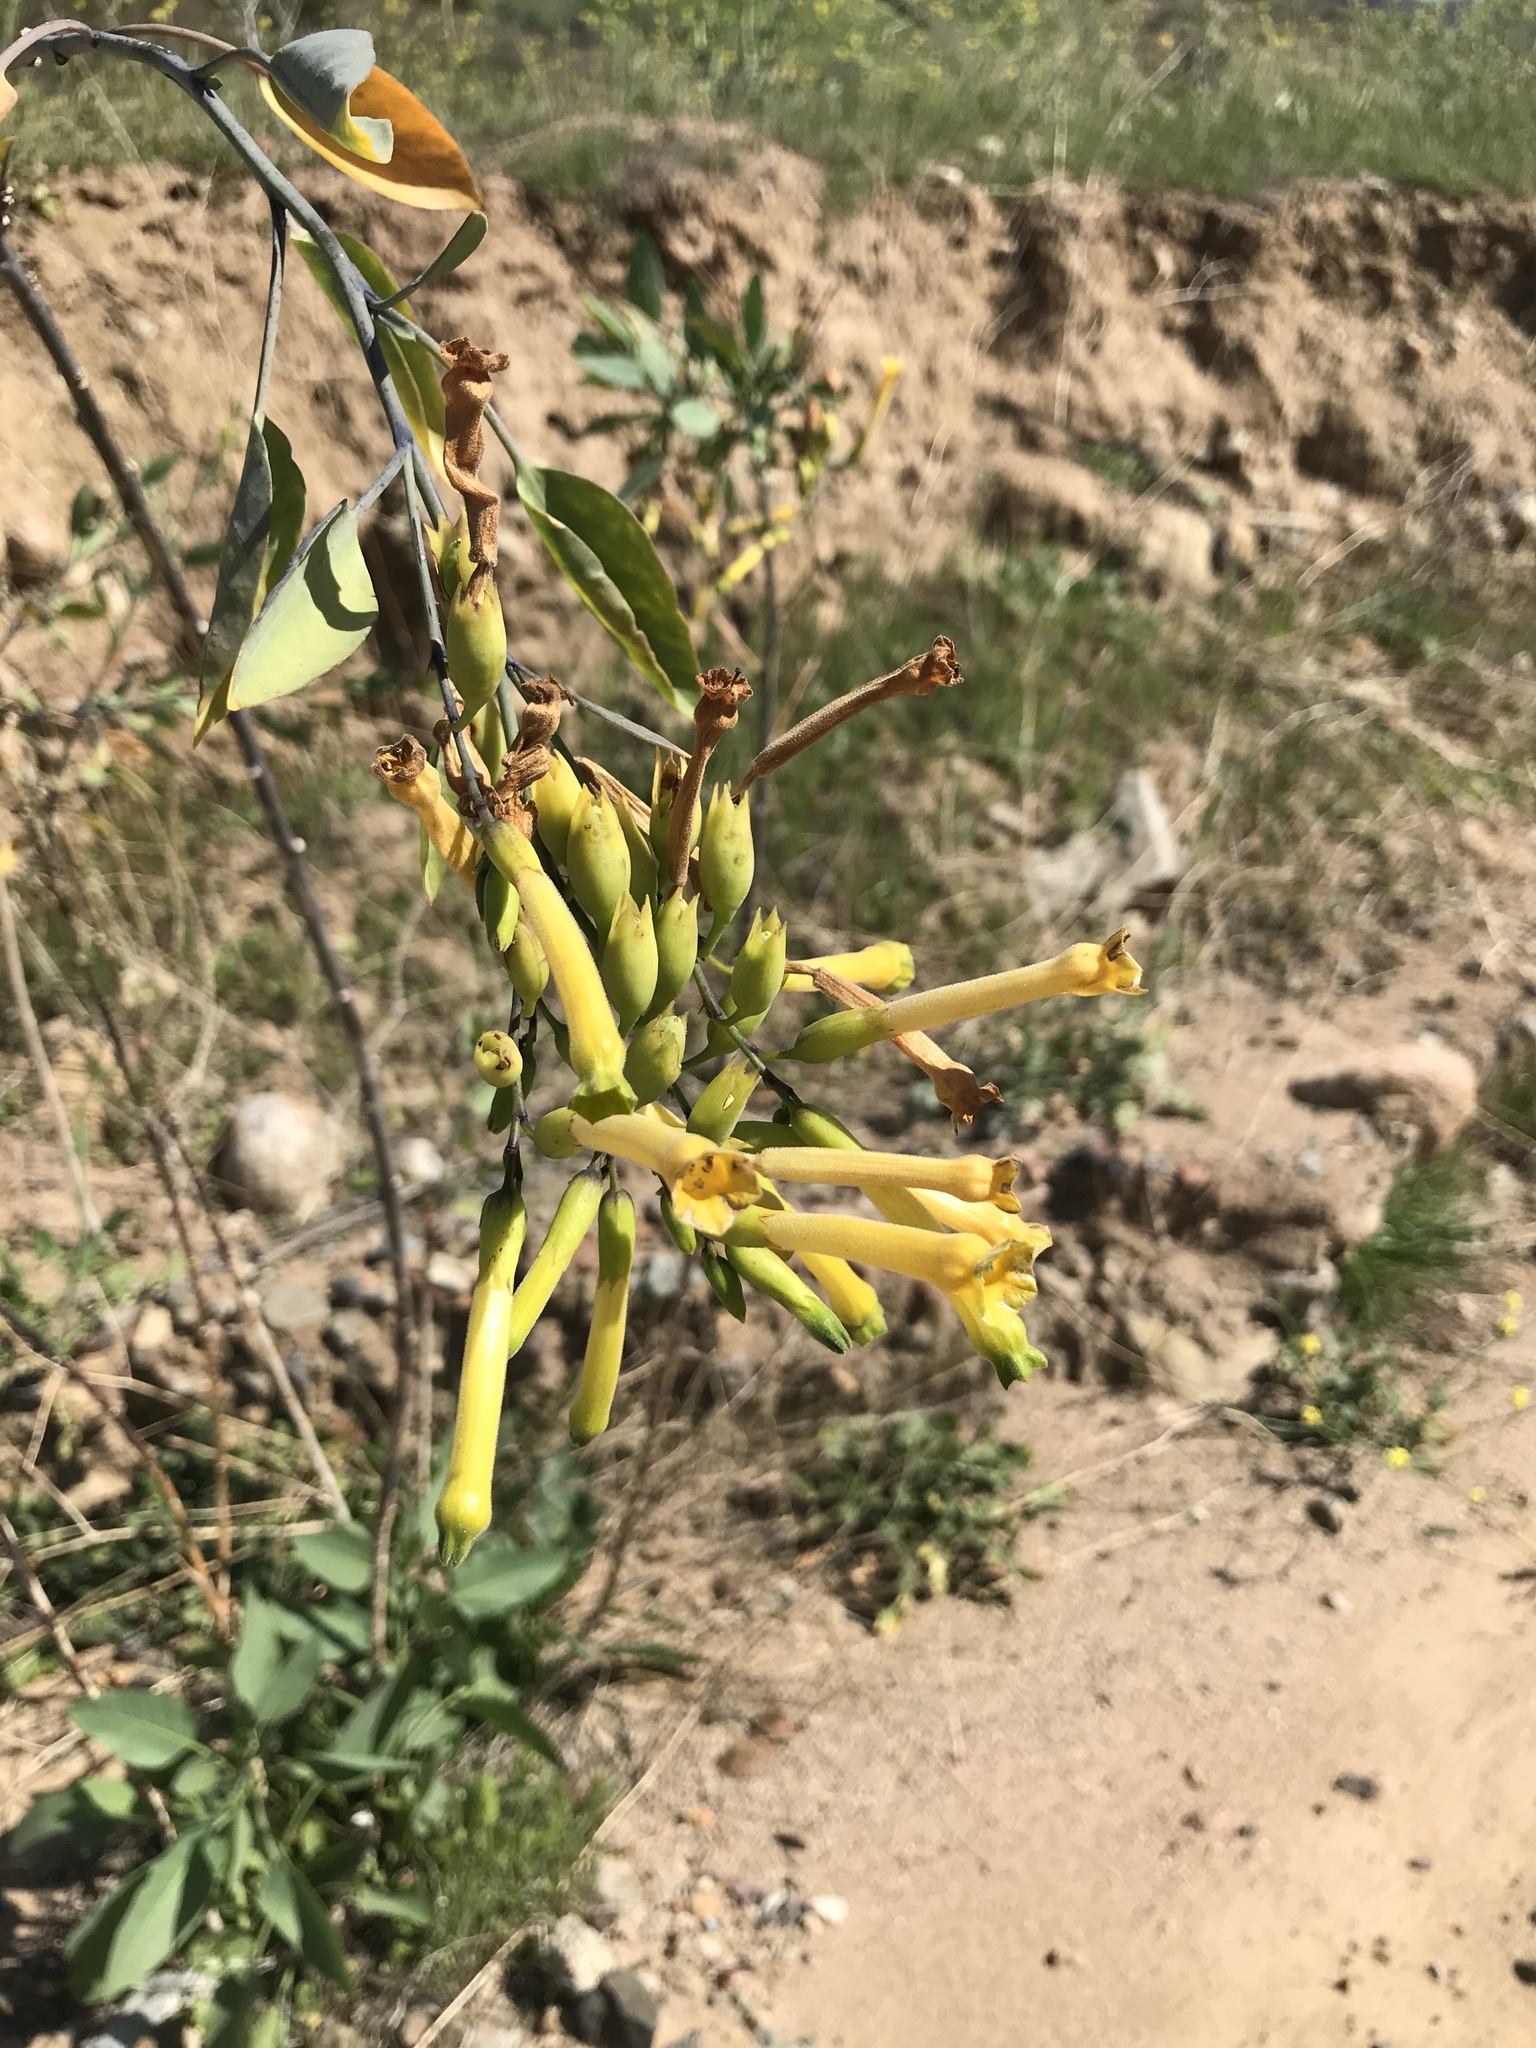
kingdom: Plantae
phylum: Tracheophyta
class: Magnoliopsida
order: Solanales
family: Solanaceae
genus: Nicotiana
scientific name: Nicotiana glauca
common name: Tree tobacco
